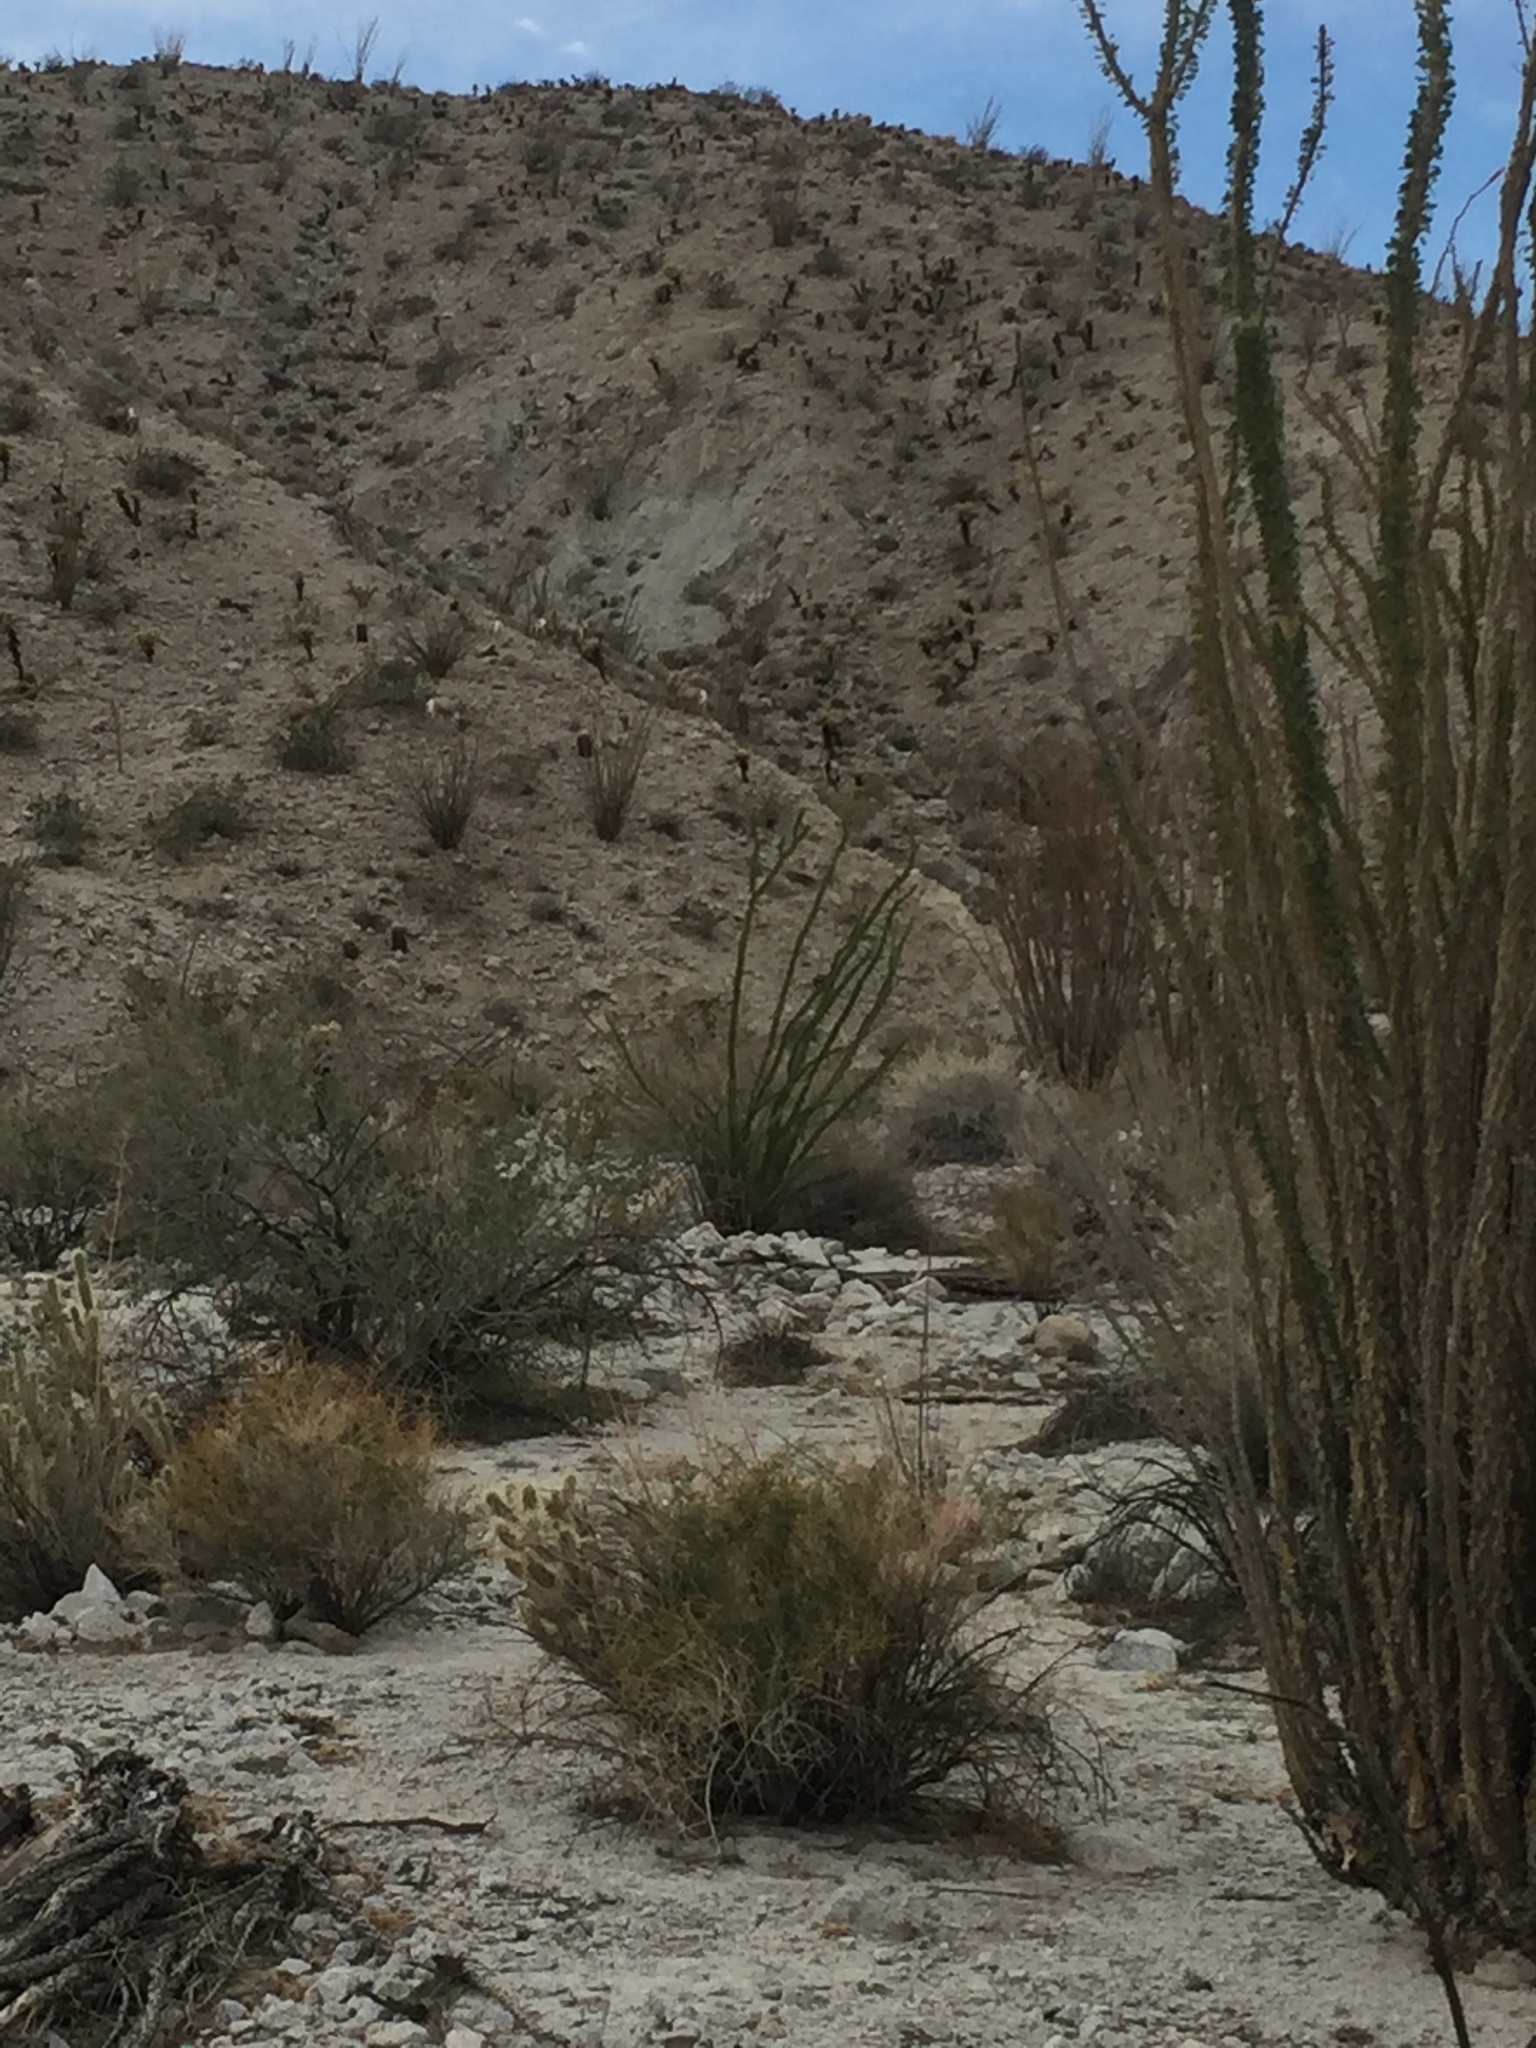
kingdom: Animalia
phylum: Chordata
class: Mammalia
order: Artiodactyla
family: Bovidae
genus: Ovis
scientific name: Ovis canadensis
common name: Bighorn sheep
